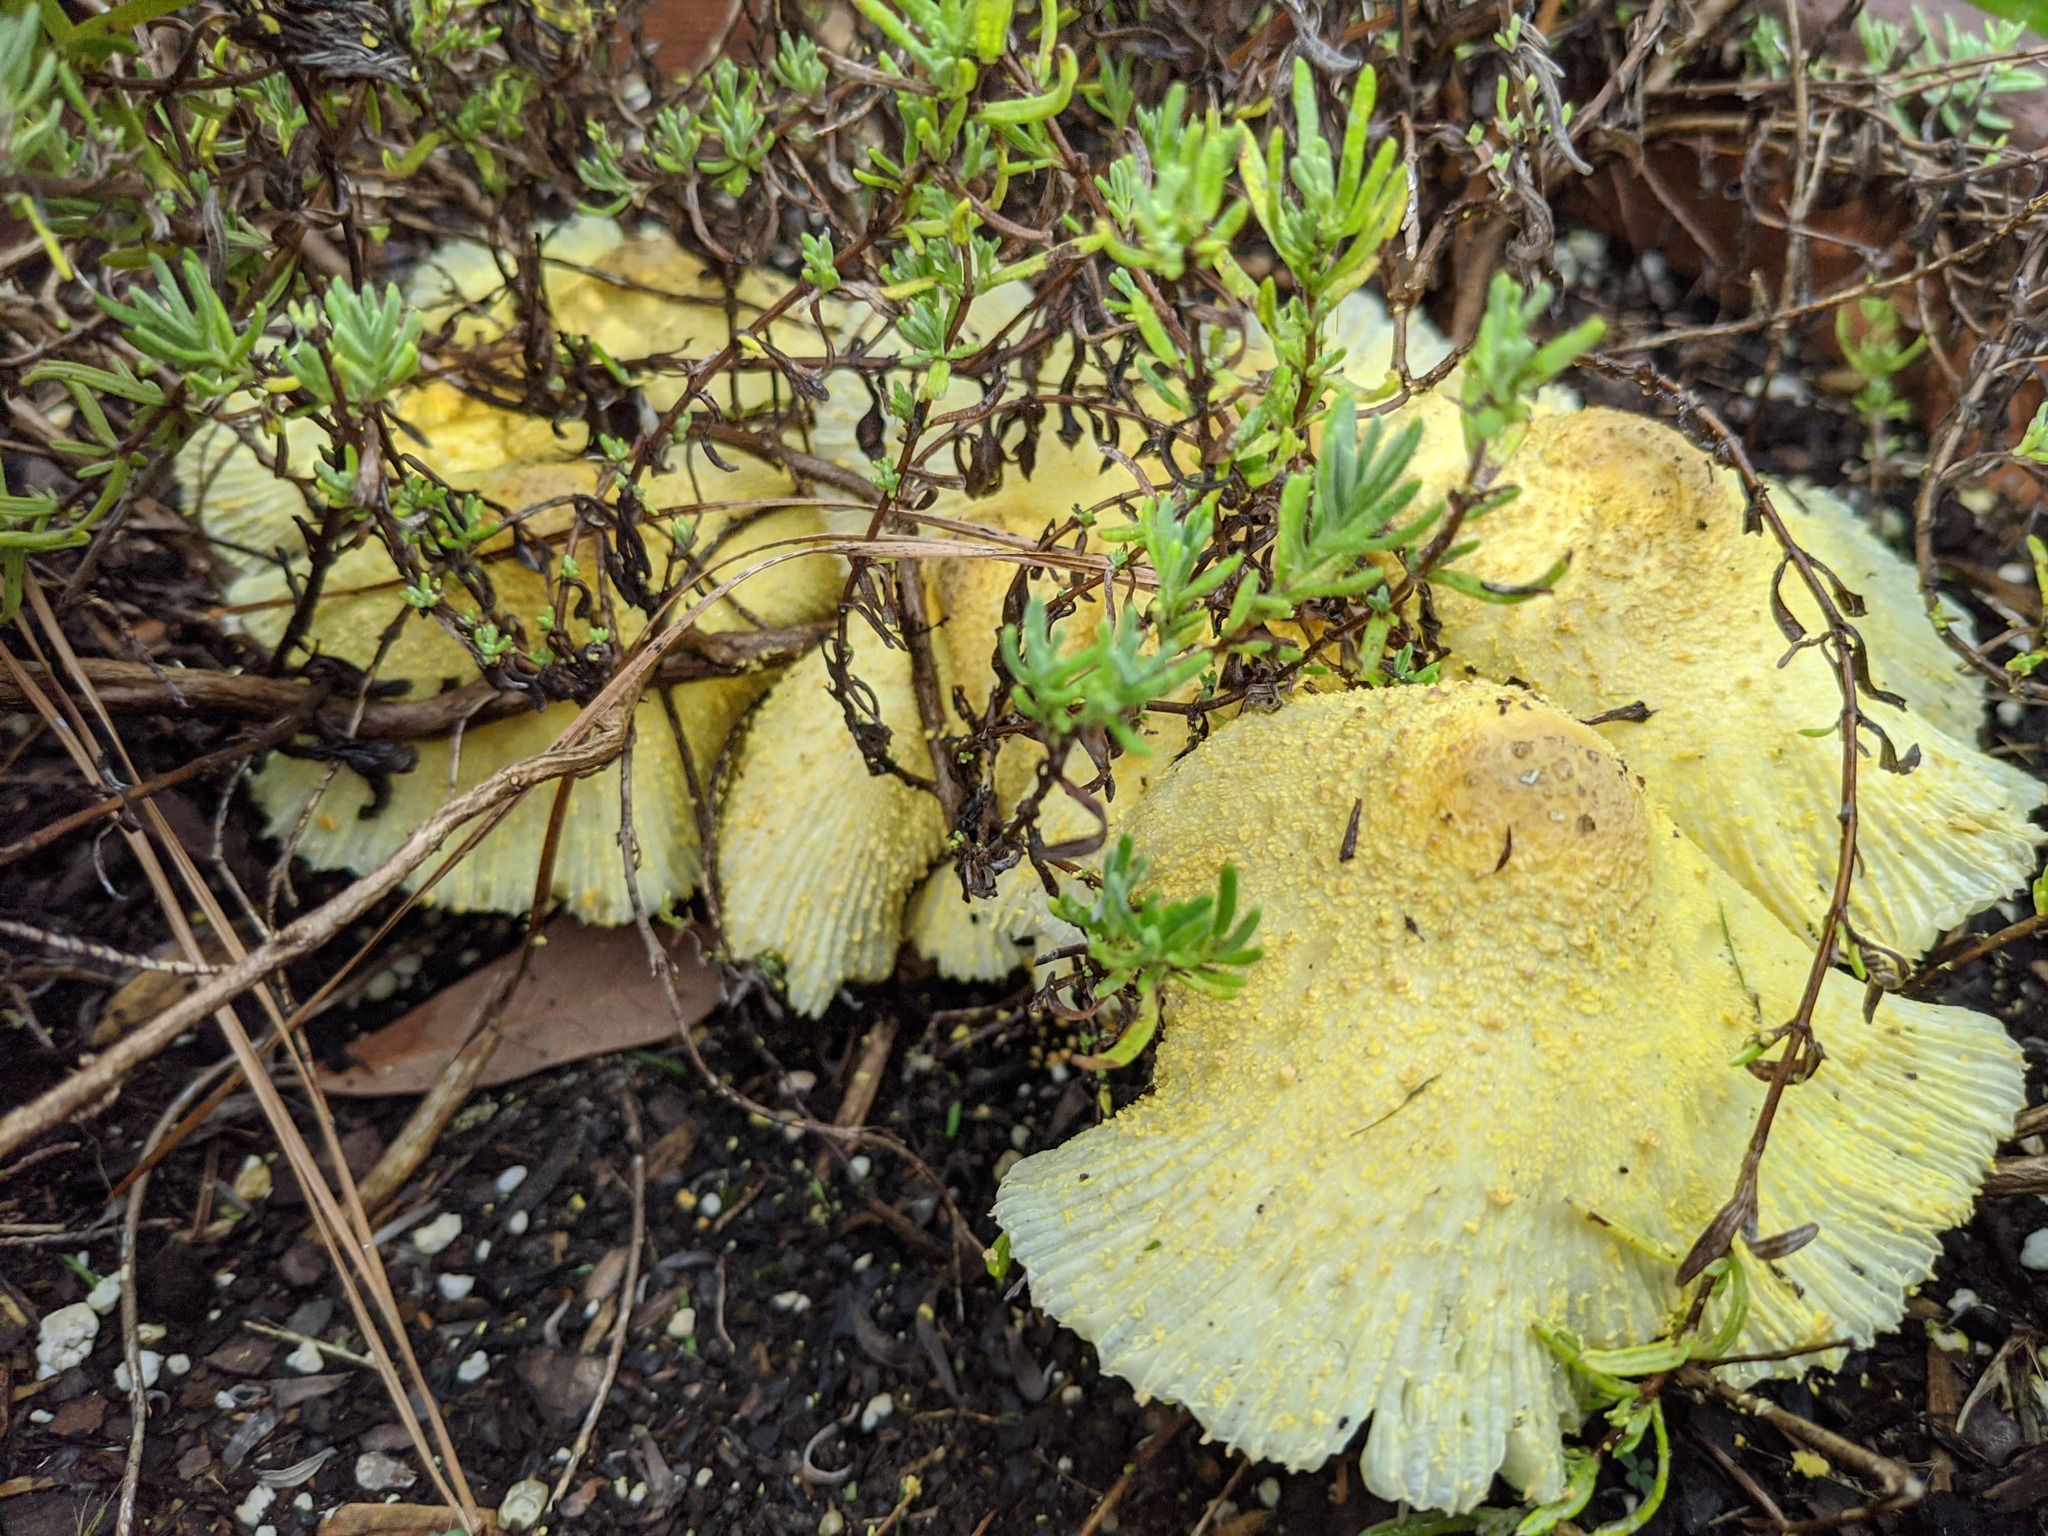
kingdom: Fungi
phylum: Basidiomycota
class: Agaricomycetes
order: Agaricales
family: Agaricaceae
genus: Leucocoprinus
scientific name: Leucocoprinus birnbaumii
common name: Plantpot dapperling
